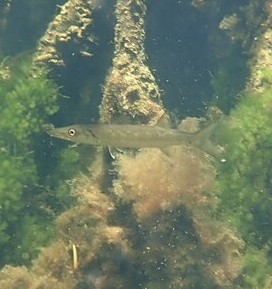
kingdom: Animalia
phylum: Chordata
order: Perciformes
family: Sphyraenidae
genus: Sphyraena
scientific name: Sphyraena barracuda
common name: Great barracuda
